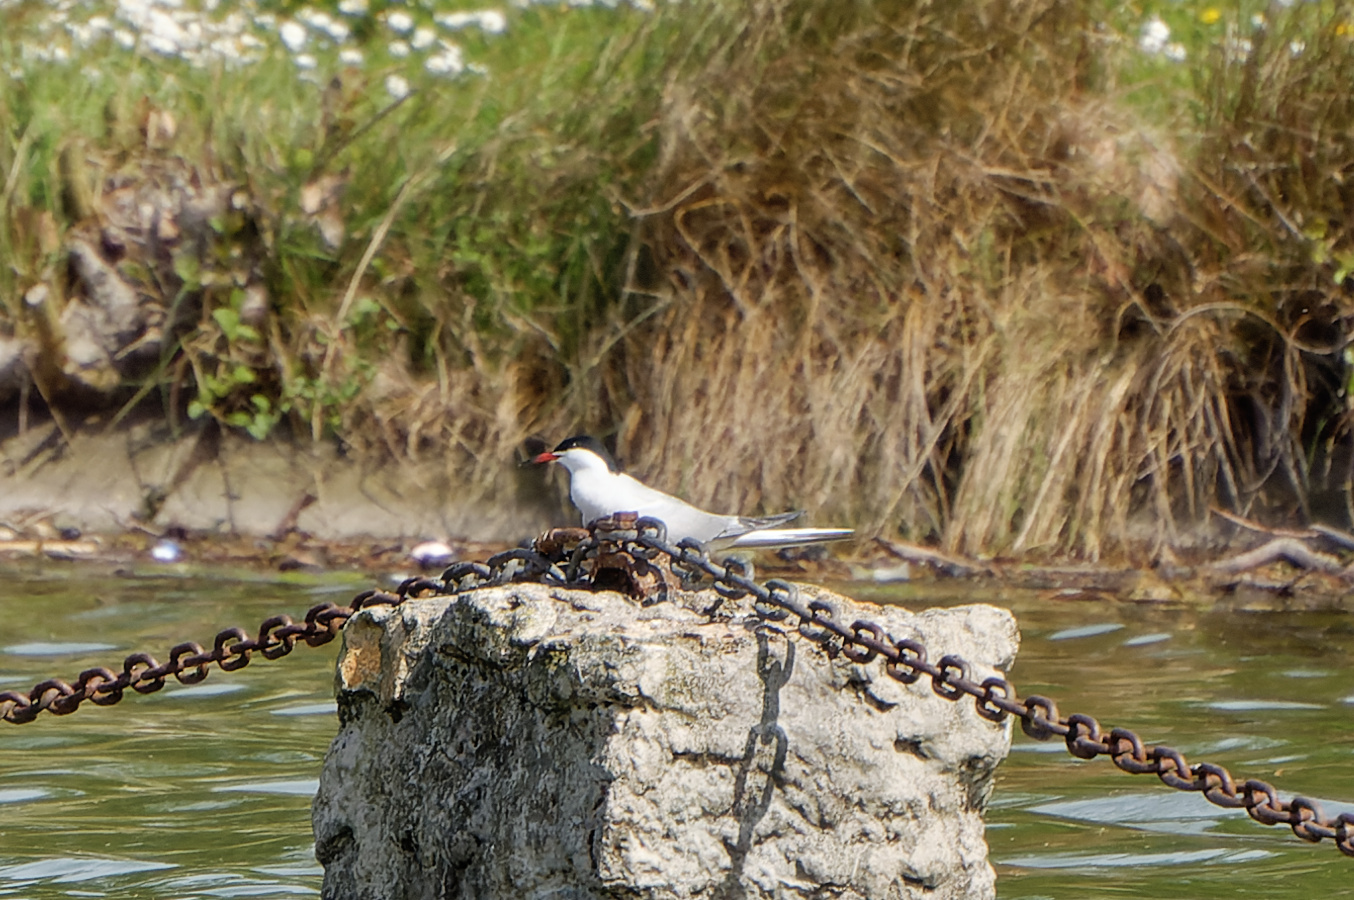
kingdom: Animalia
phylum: Chordata
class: Aves
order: Charadriiformes
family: Laridae
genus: Sterna
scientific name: Sterna hirundo
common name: Common tern
